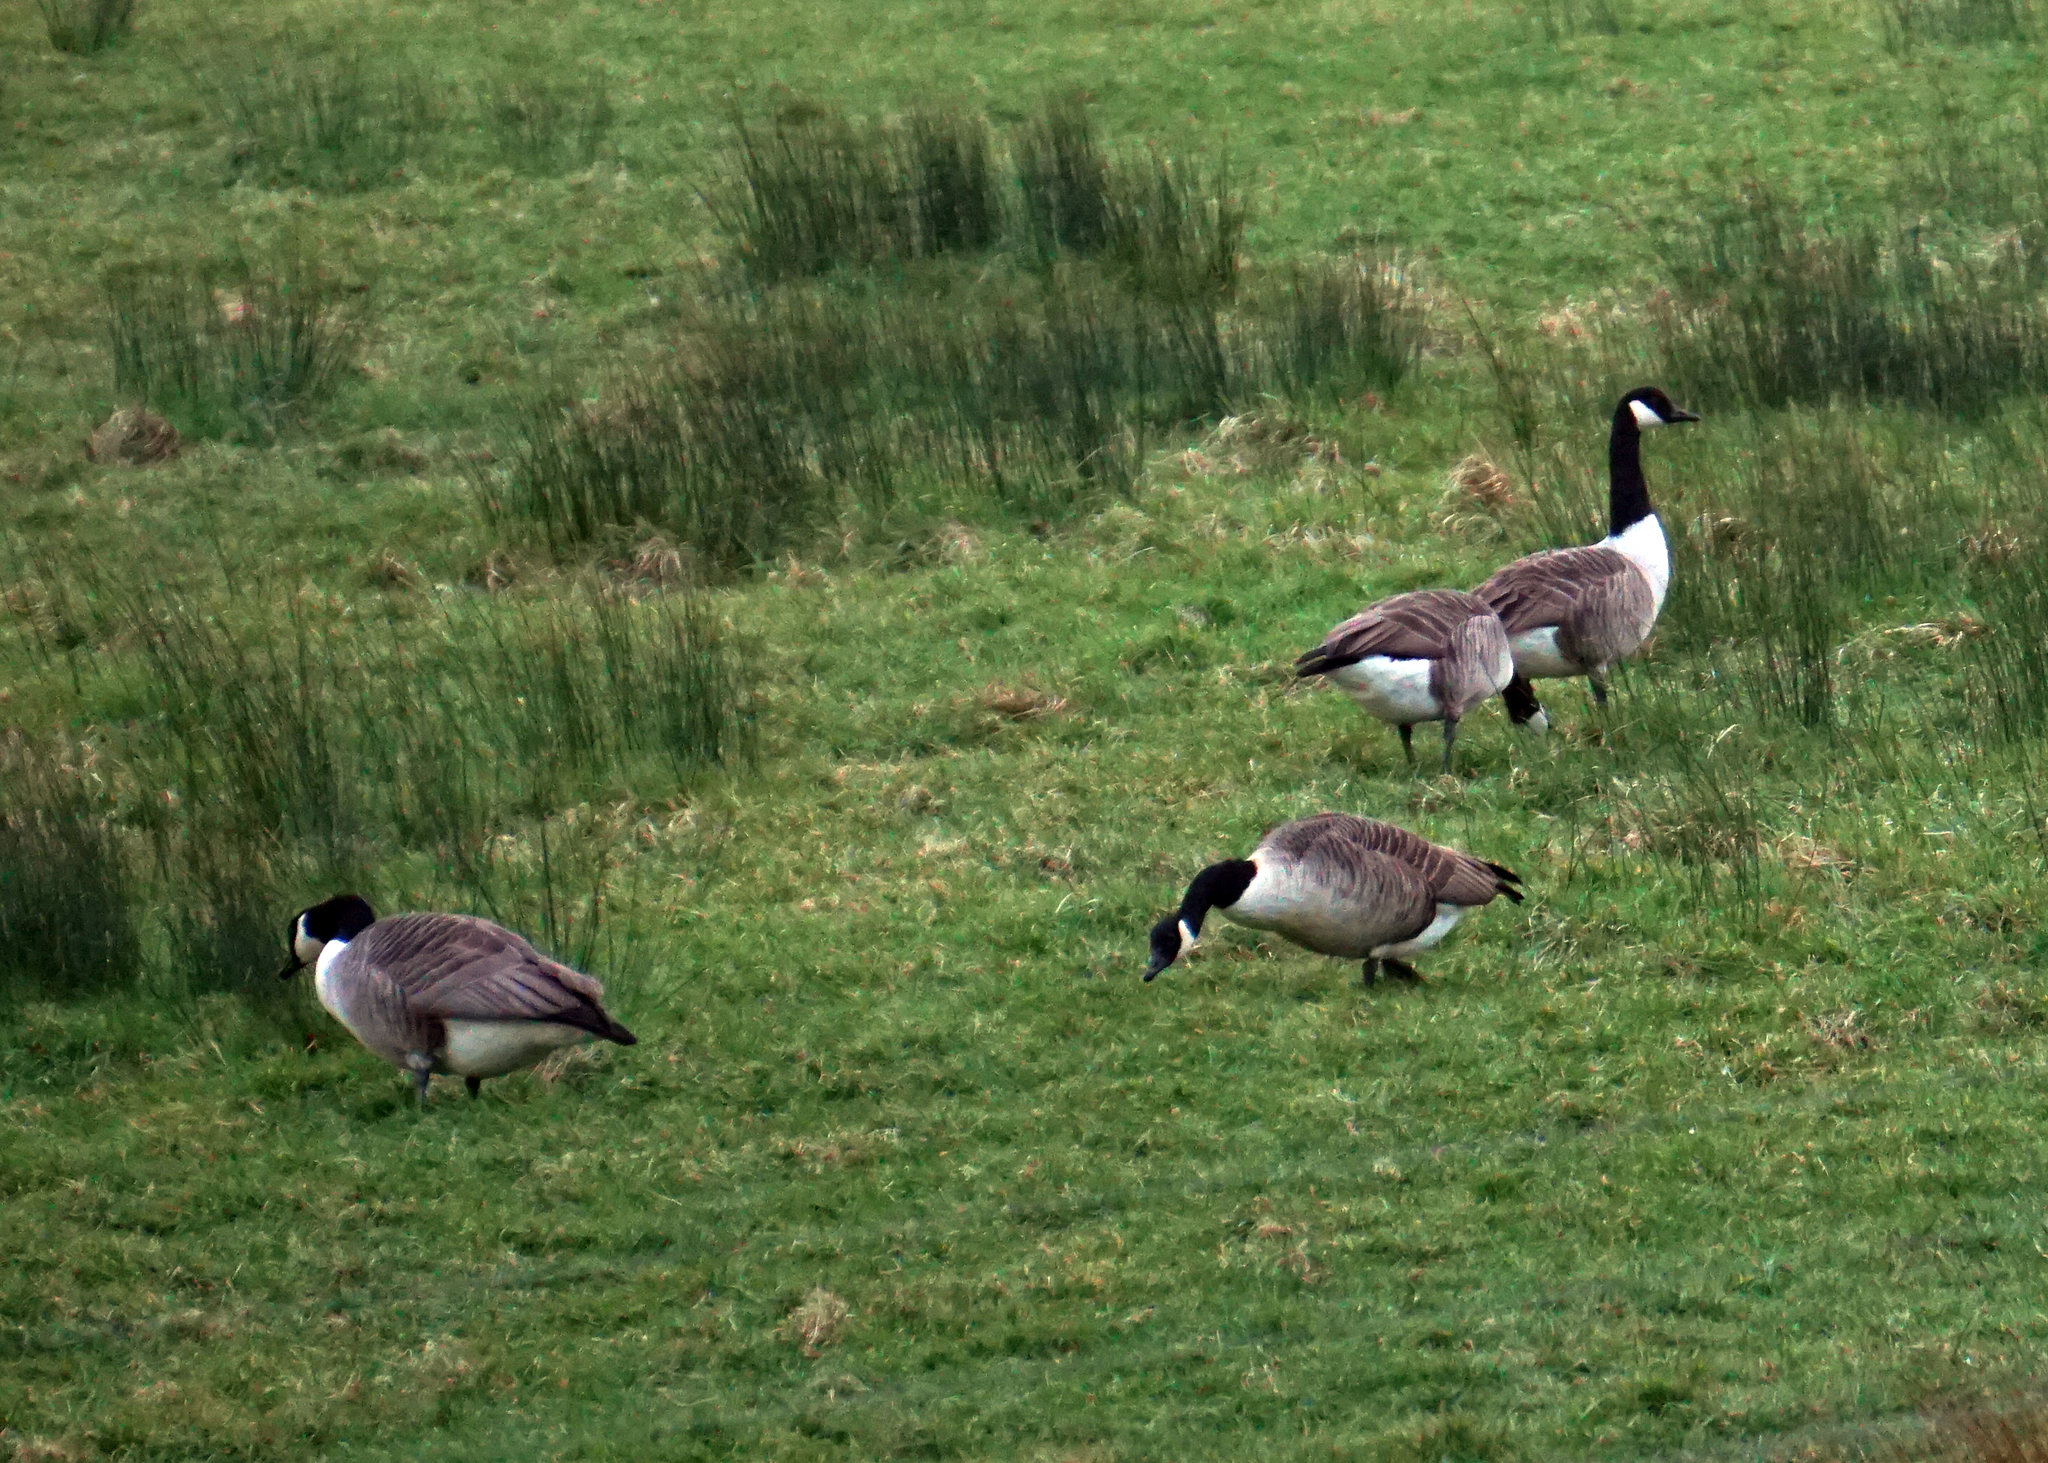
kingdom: Animalia
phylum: Chordata
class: Aves
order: Anseriformes
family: Anatidae
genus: Branta
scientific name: Branta canadensis
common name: Canada goose
